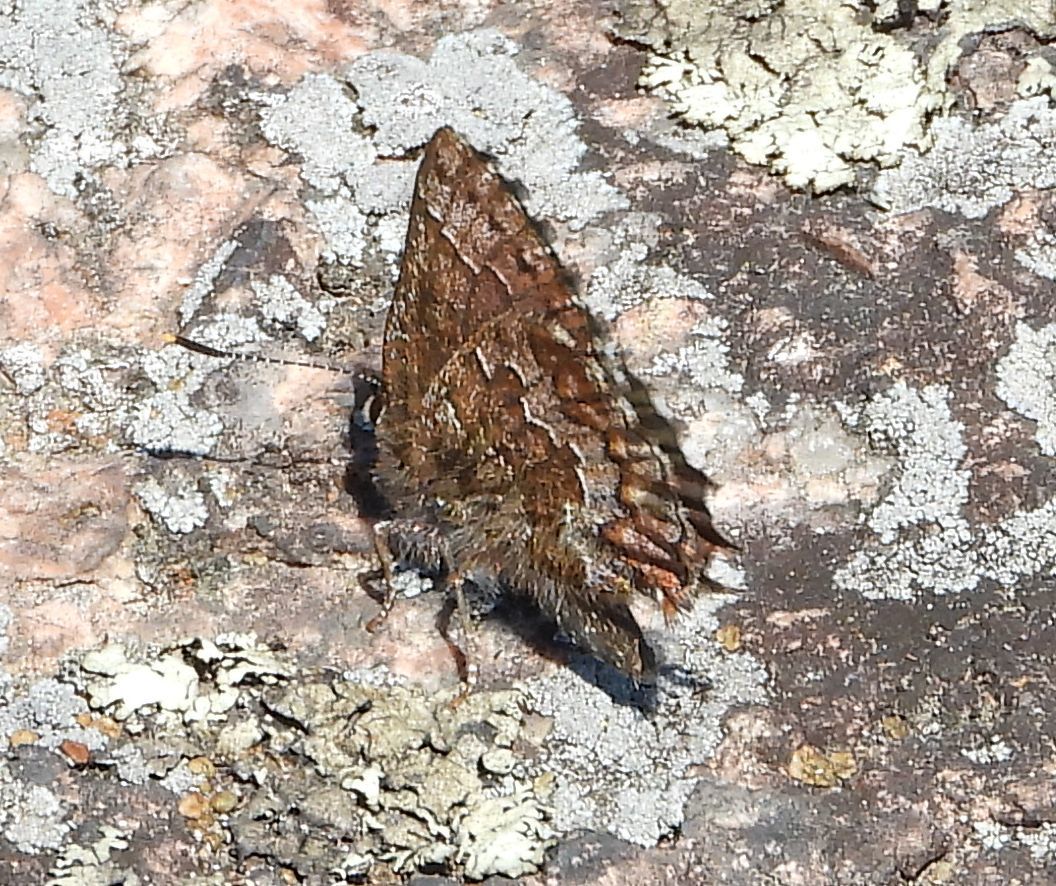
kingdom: Animalia
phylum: Arthropoda
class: Insecta
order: Lepidoptera
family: Lycaenidae
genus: Incisalia
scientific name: Incisalia niphon
